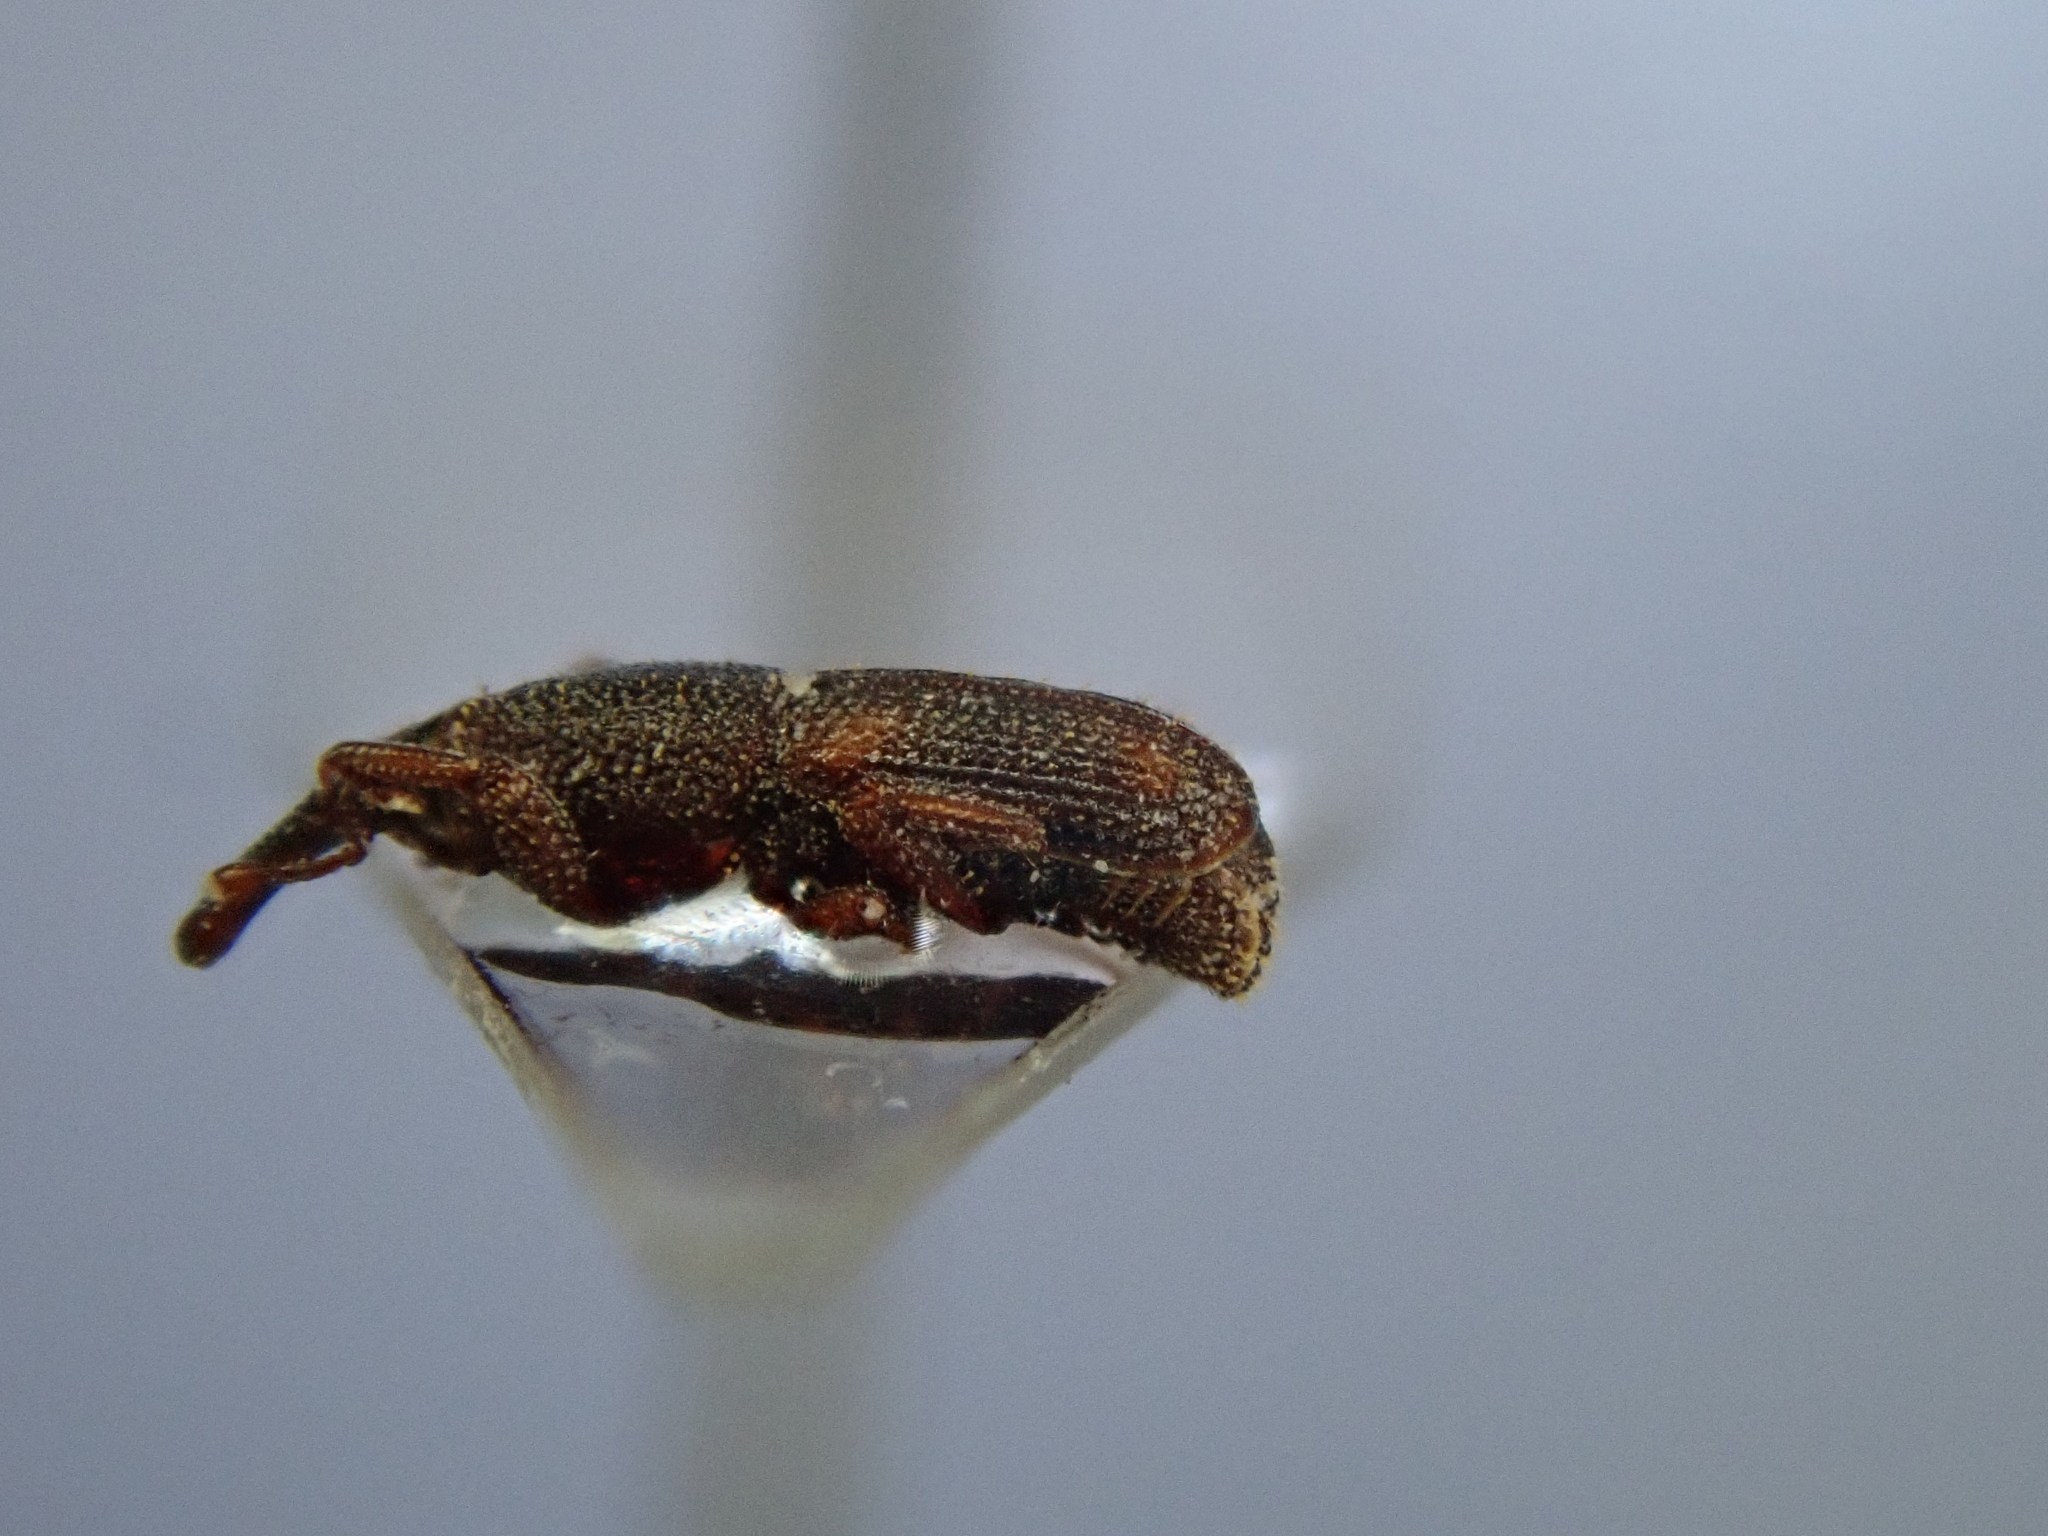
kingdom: Animalia
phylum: Arthropoda
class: Insecta
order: Coleoptera
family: Dryophthoridae
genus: Sitophilus
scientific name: Sitophilus oryzae
